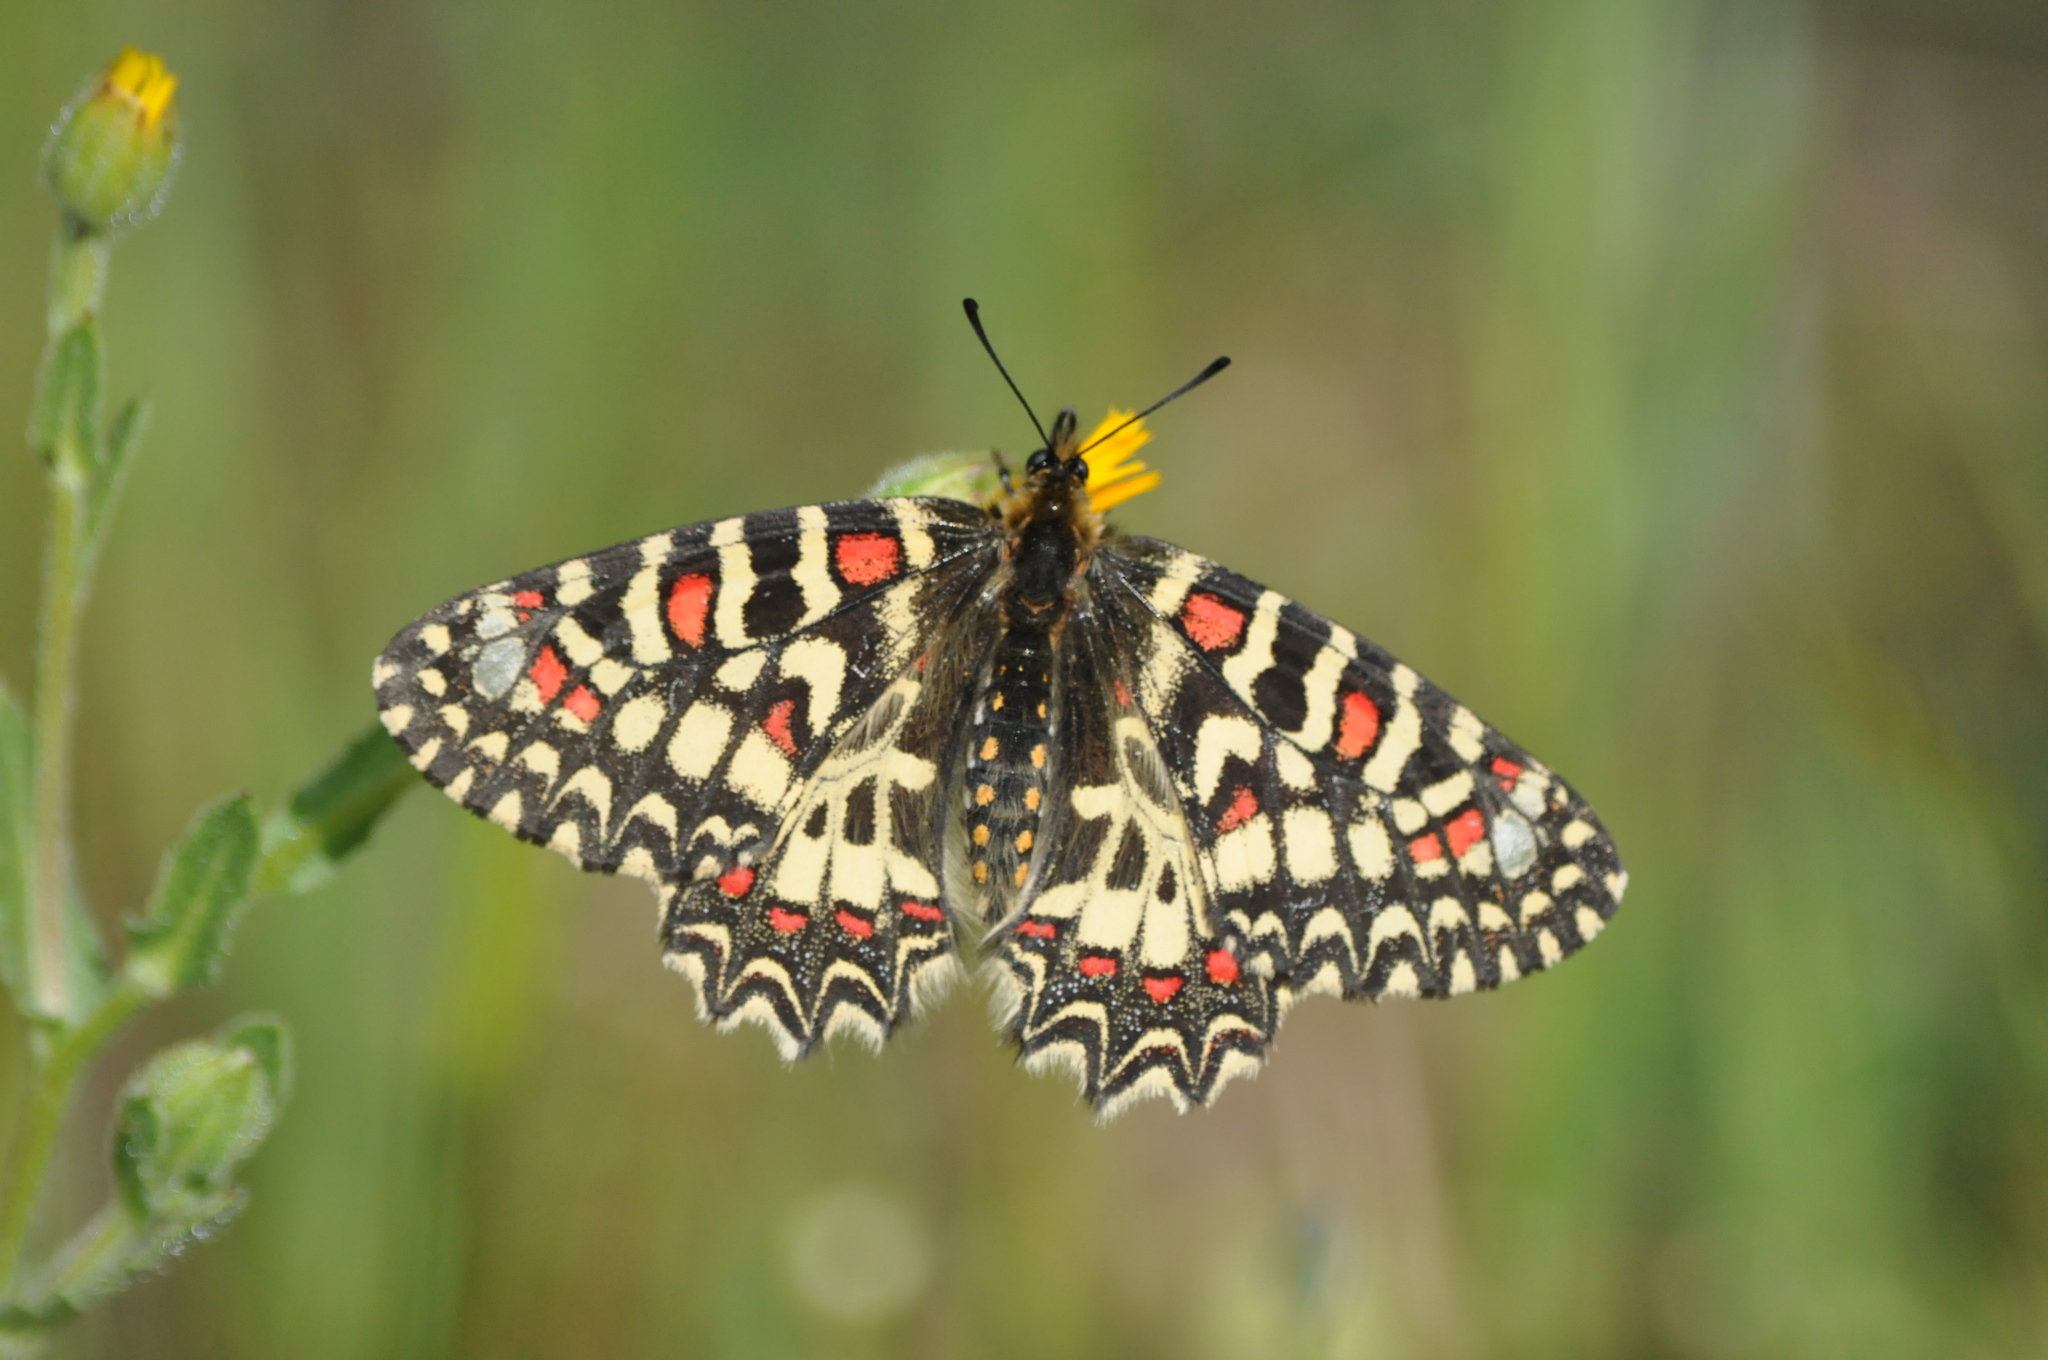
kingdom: Animalia
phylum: Arthropoda
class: Insecta
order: Lepidoptera
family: Papilionidae
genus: Zerynthia
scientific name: Zerynthia rumina
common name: Spanish festoon
